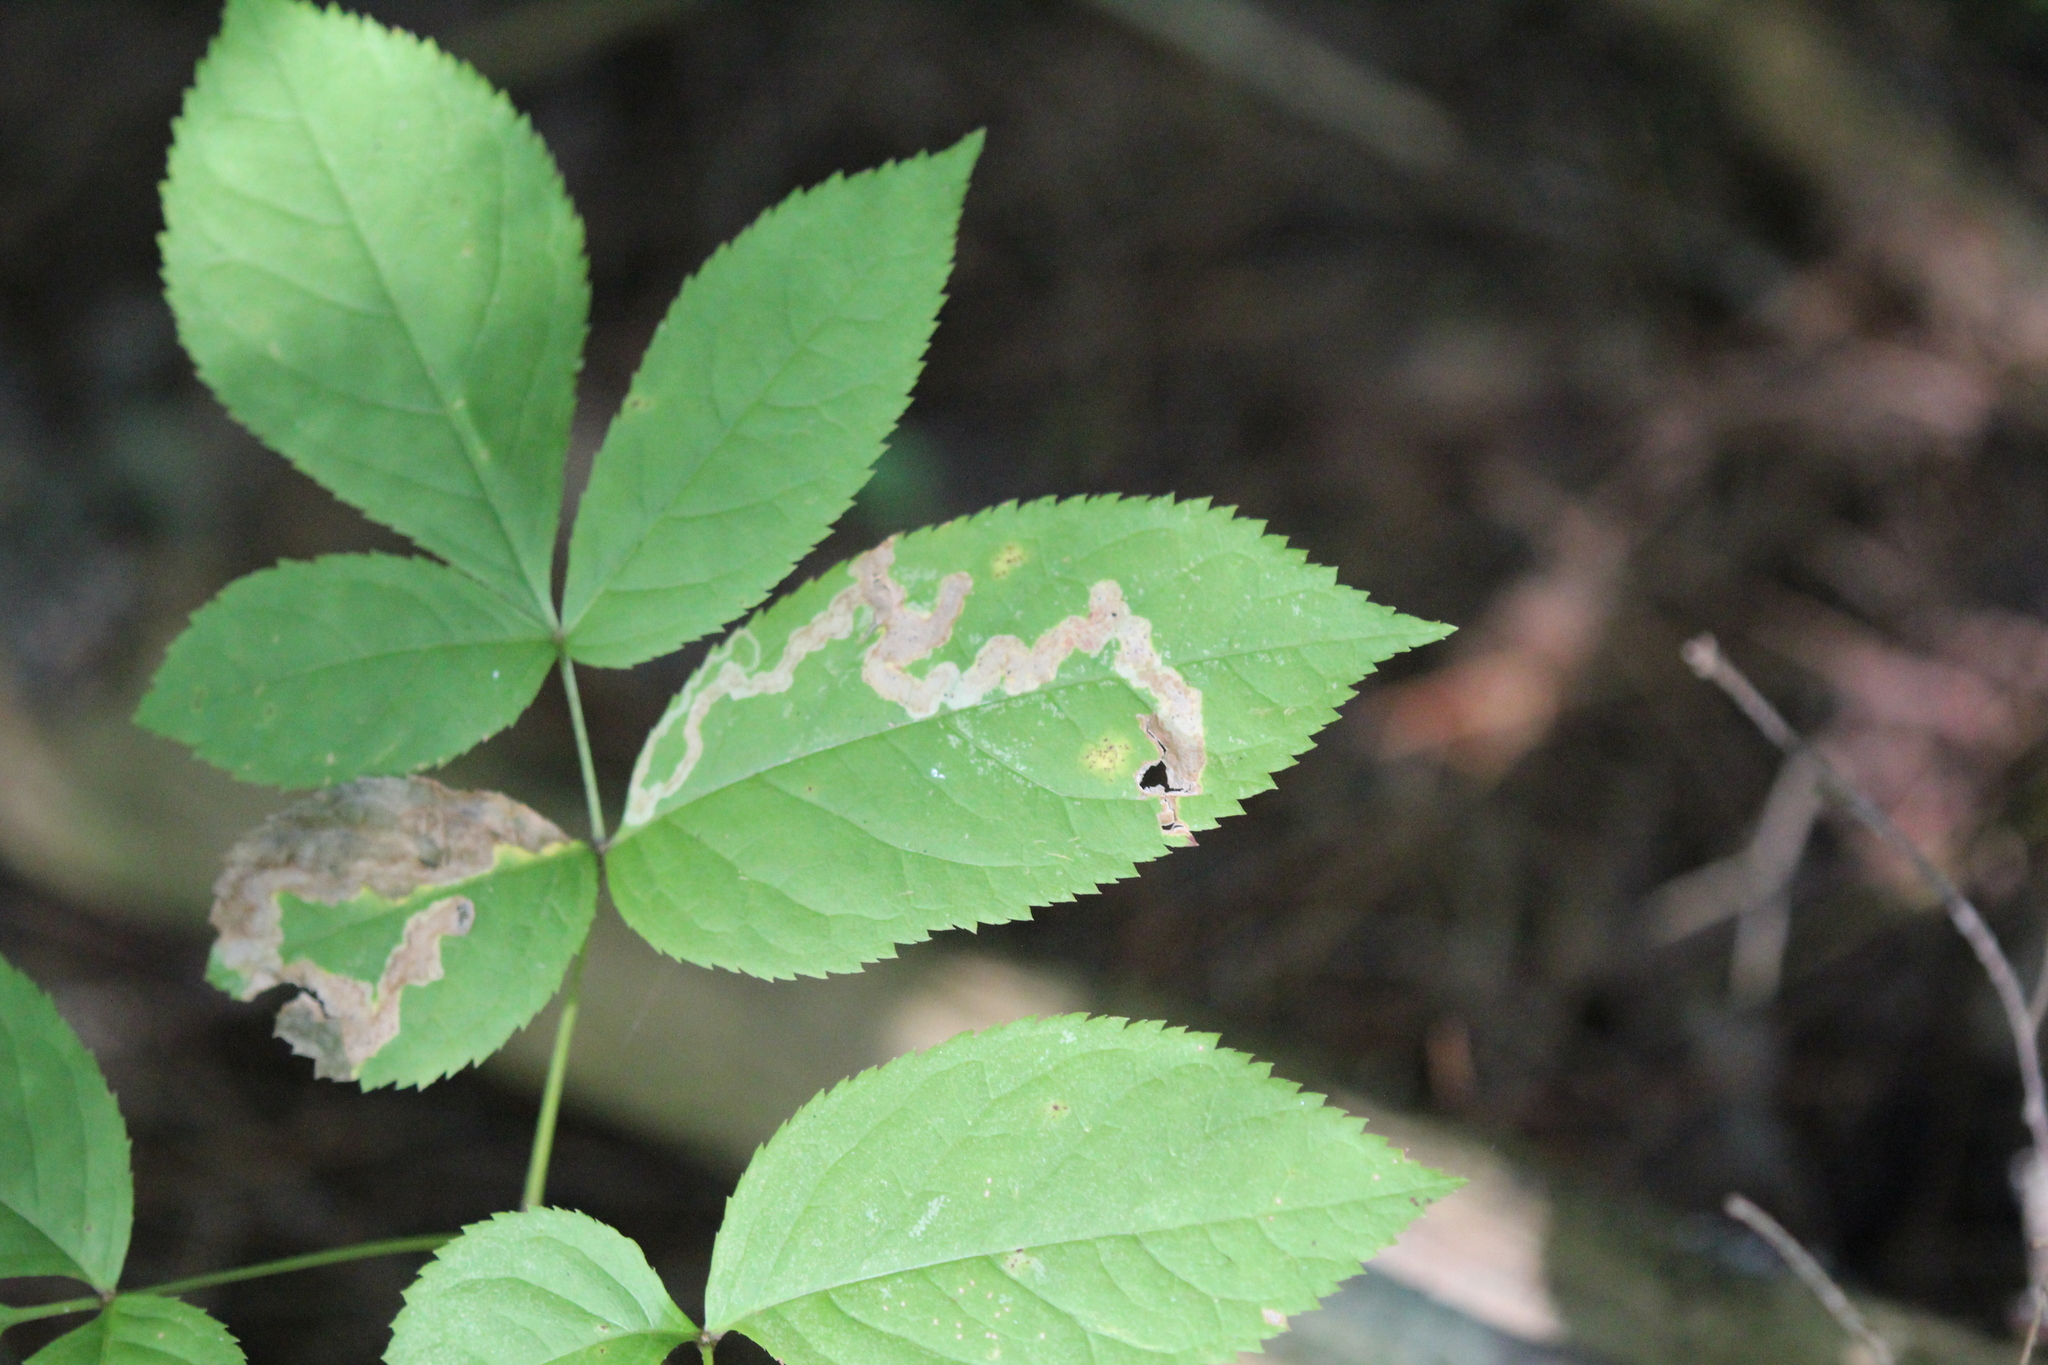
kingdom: Animalia
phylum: Arthropoda
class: Insecta
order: Diptera
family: Agromyzidae
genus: Phytomyza
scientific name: Phytomyza aralivora
